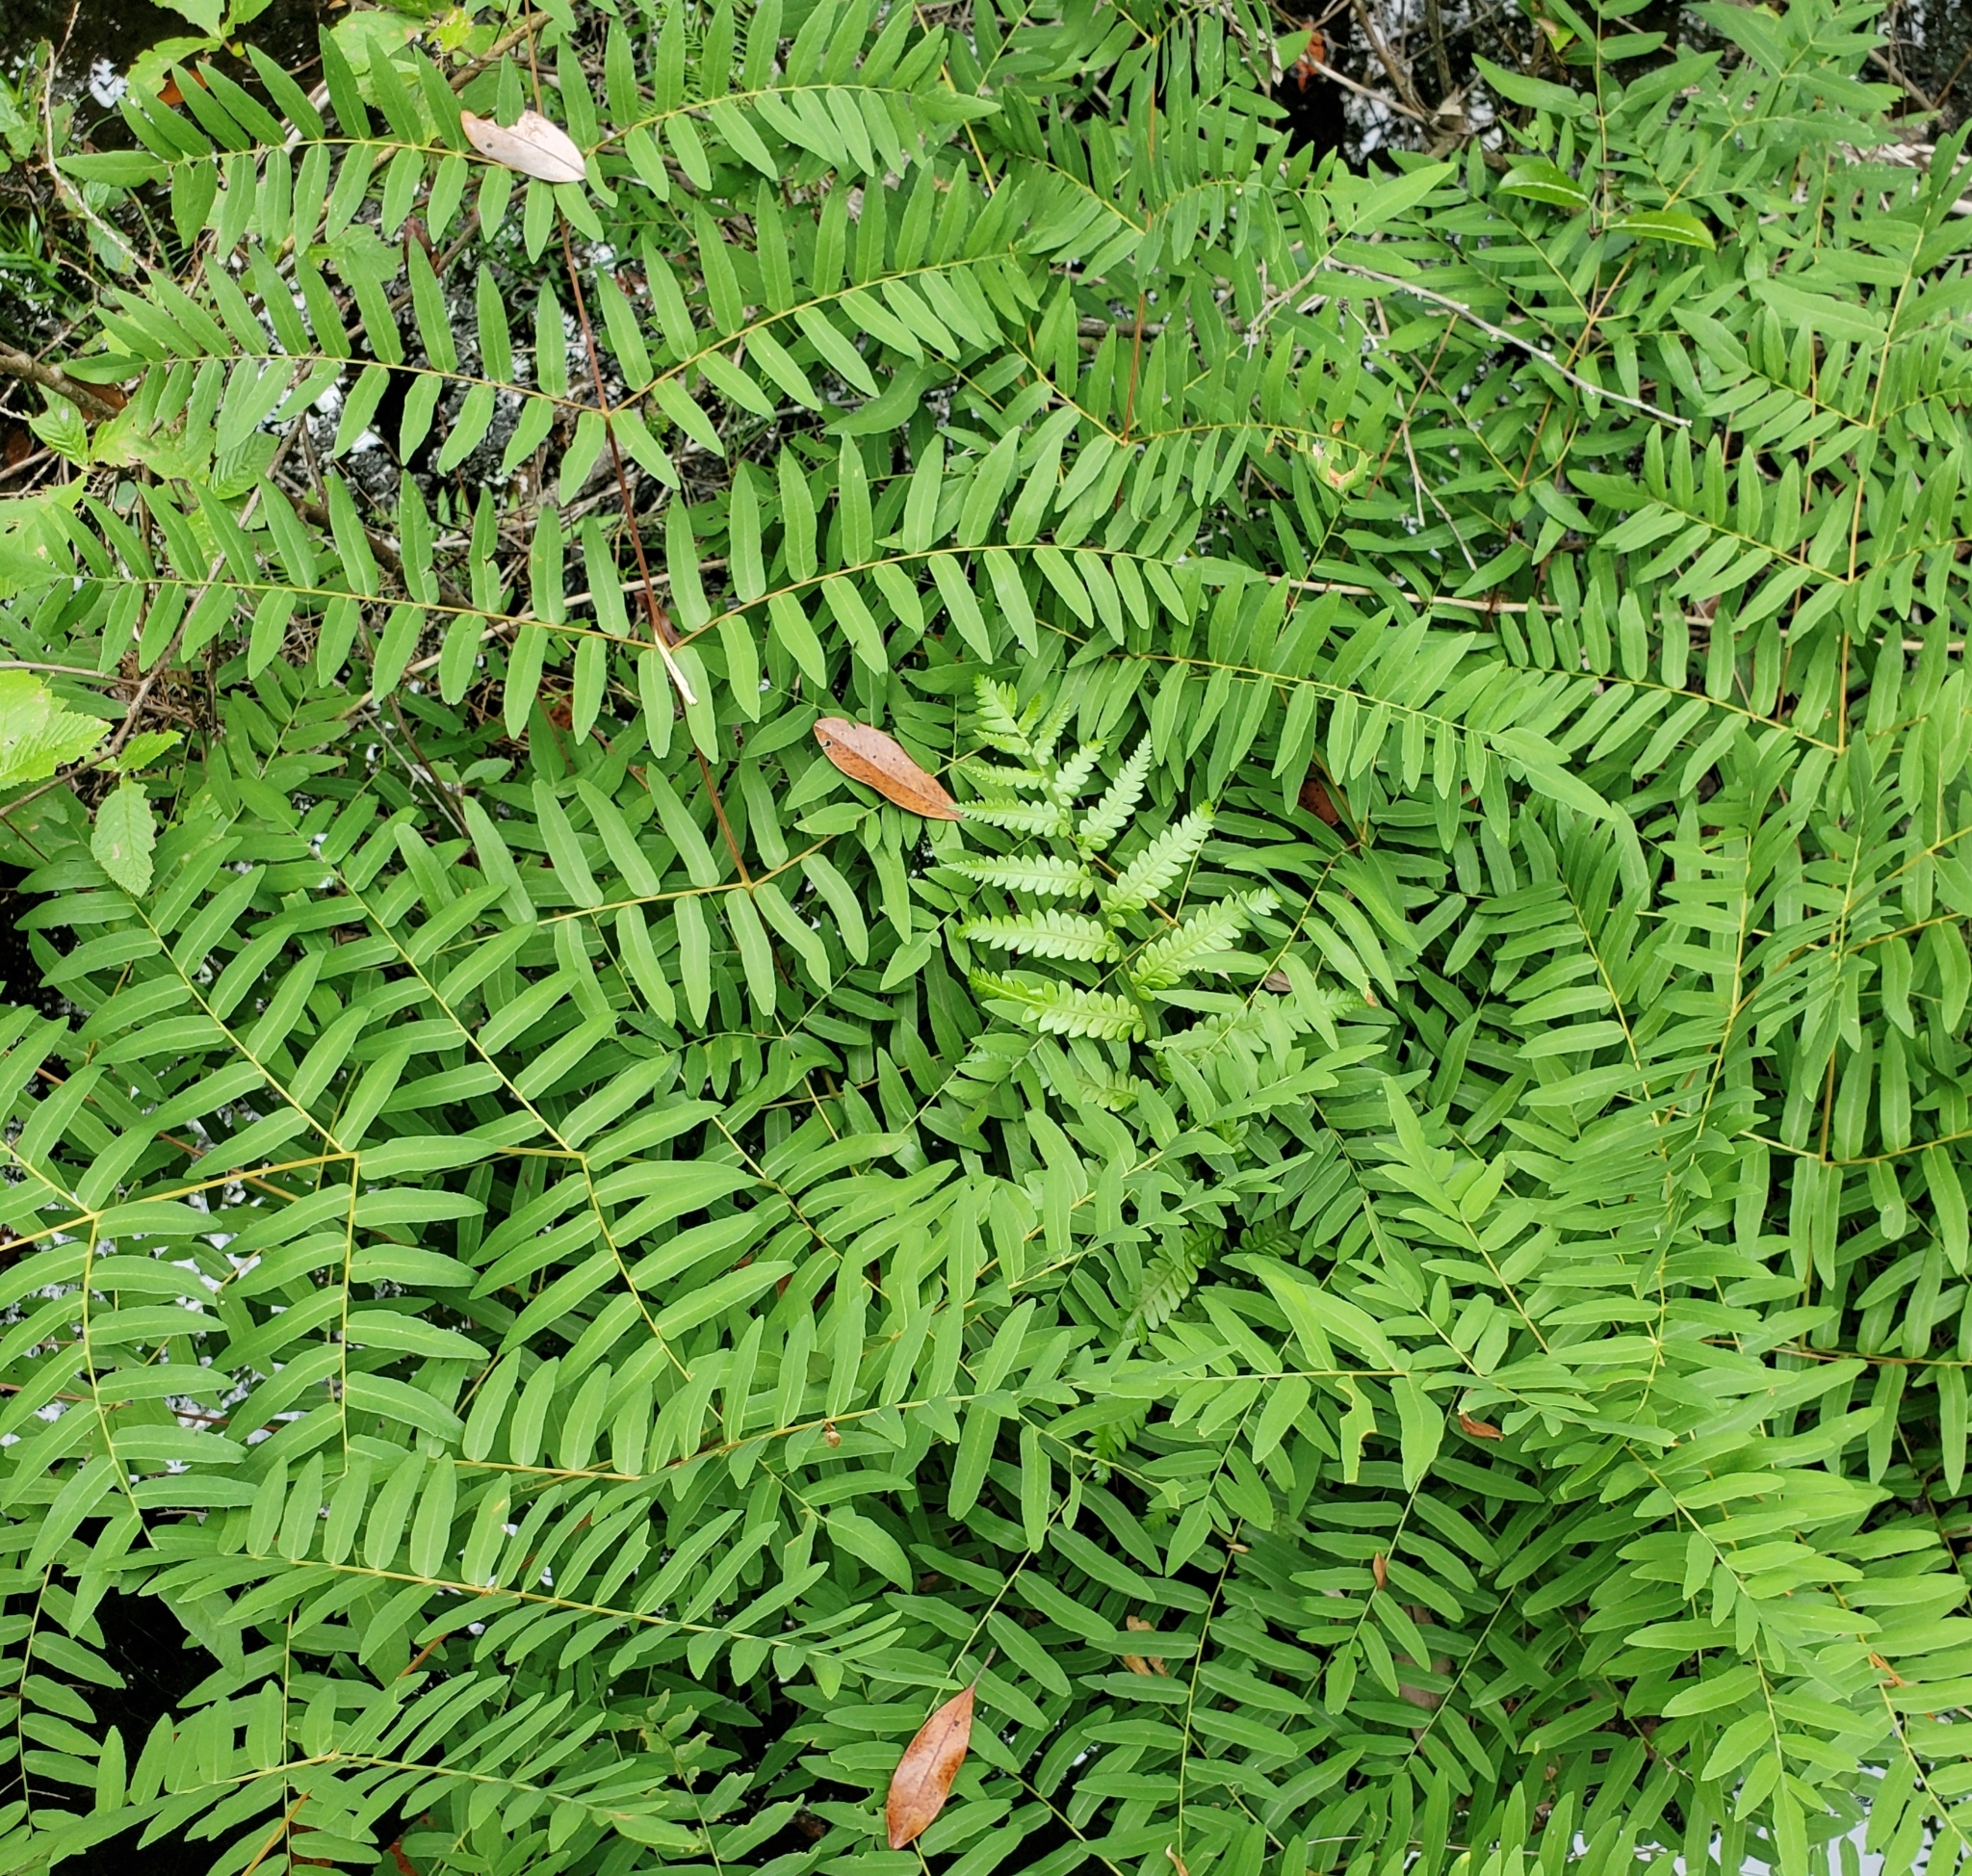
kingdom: Plantae
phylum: Tracheophyta
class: Polypodiopsida
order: Osmundales
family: Osmundaceae
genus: Osmunda
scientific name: Osmunda spectabilis
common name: American royal fern
